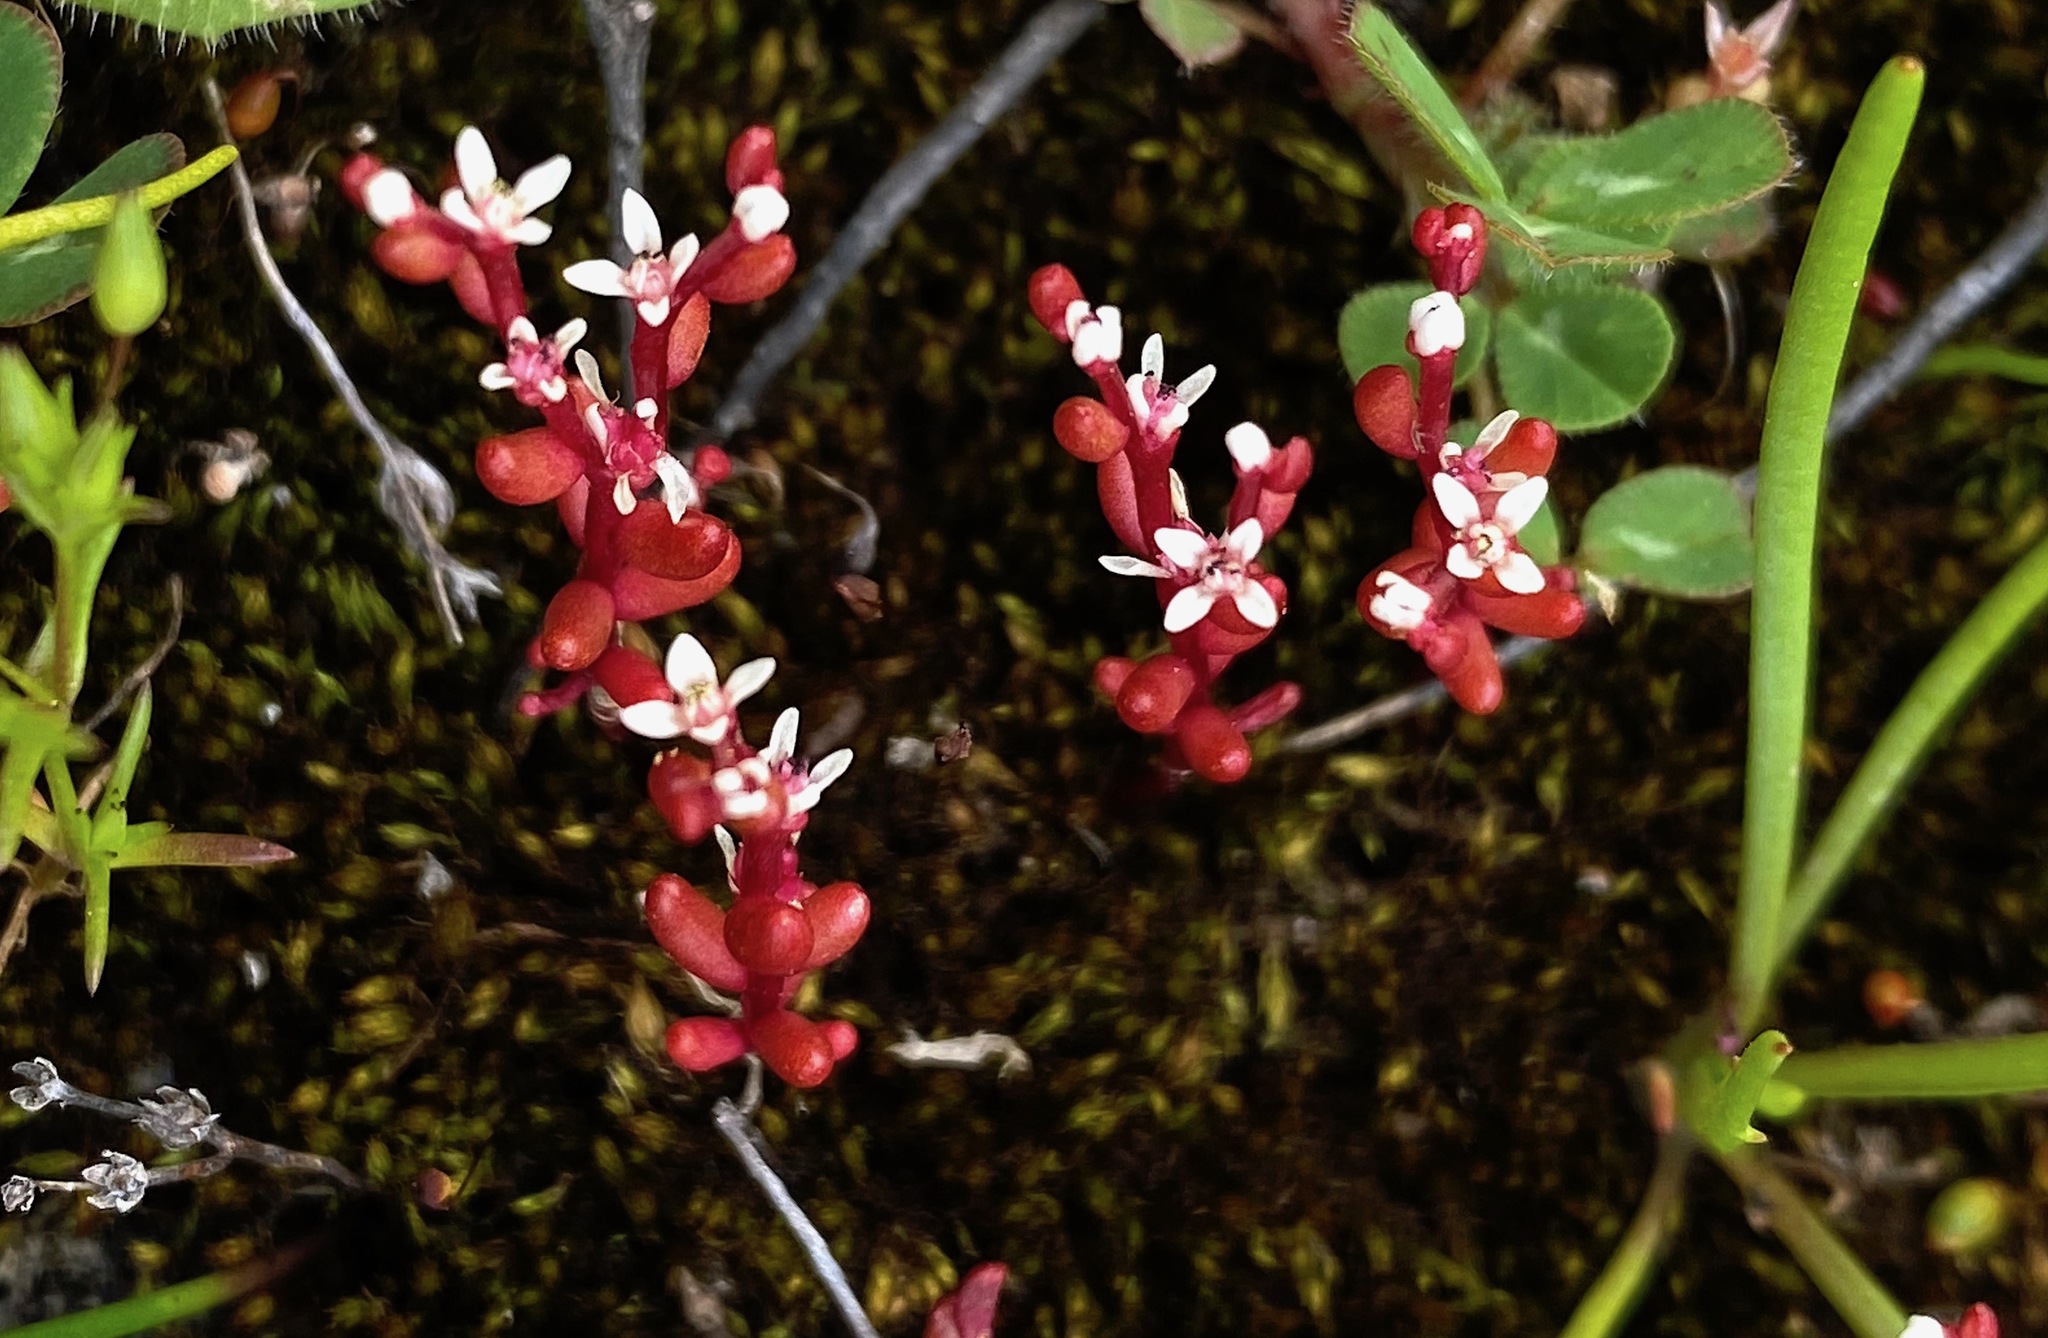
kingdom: Plantae
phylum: Tracheophyta
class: Magnoliopsida
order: Saxifragales
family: Crassulaceae
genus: Sedum
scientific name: Sedum microcarpum
